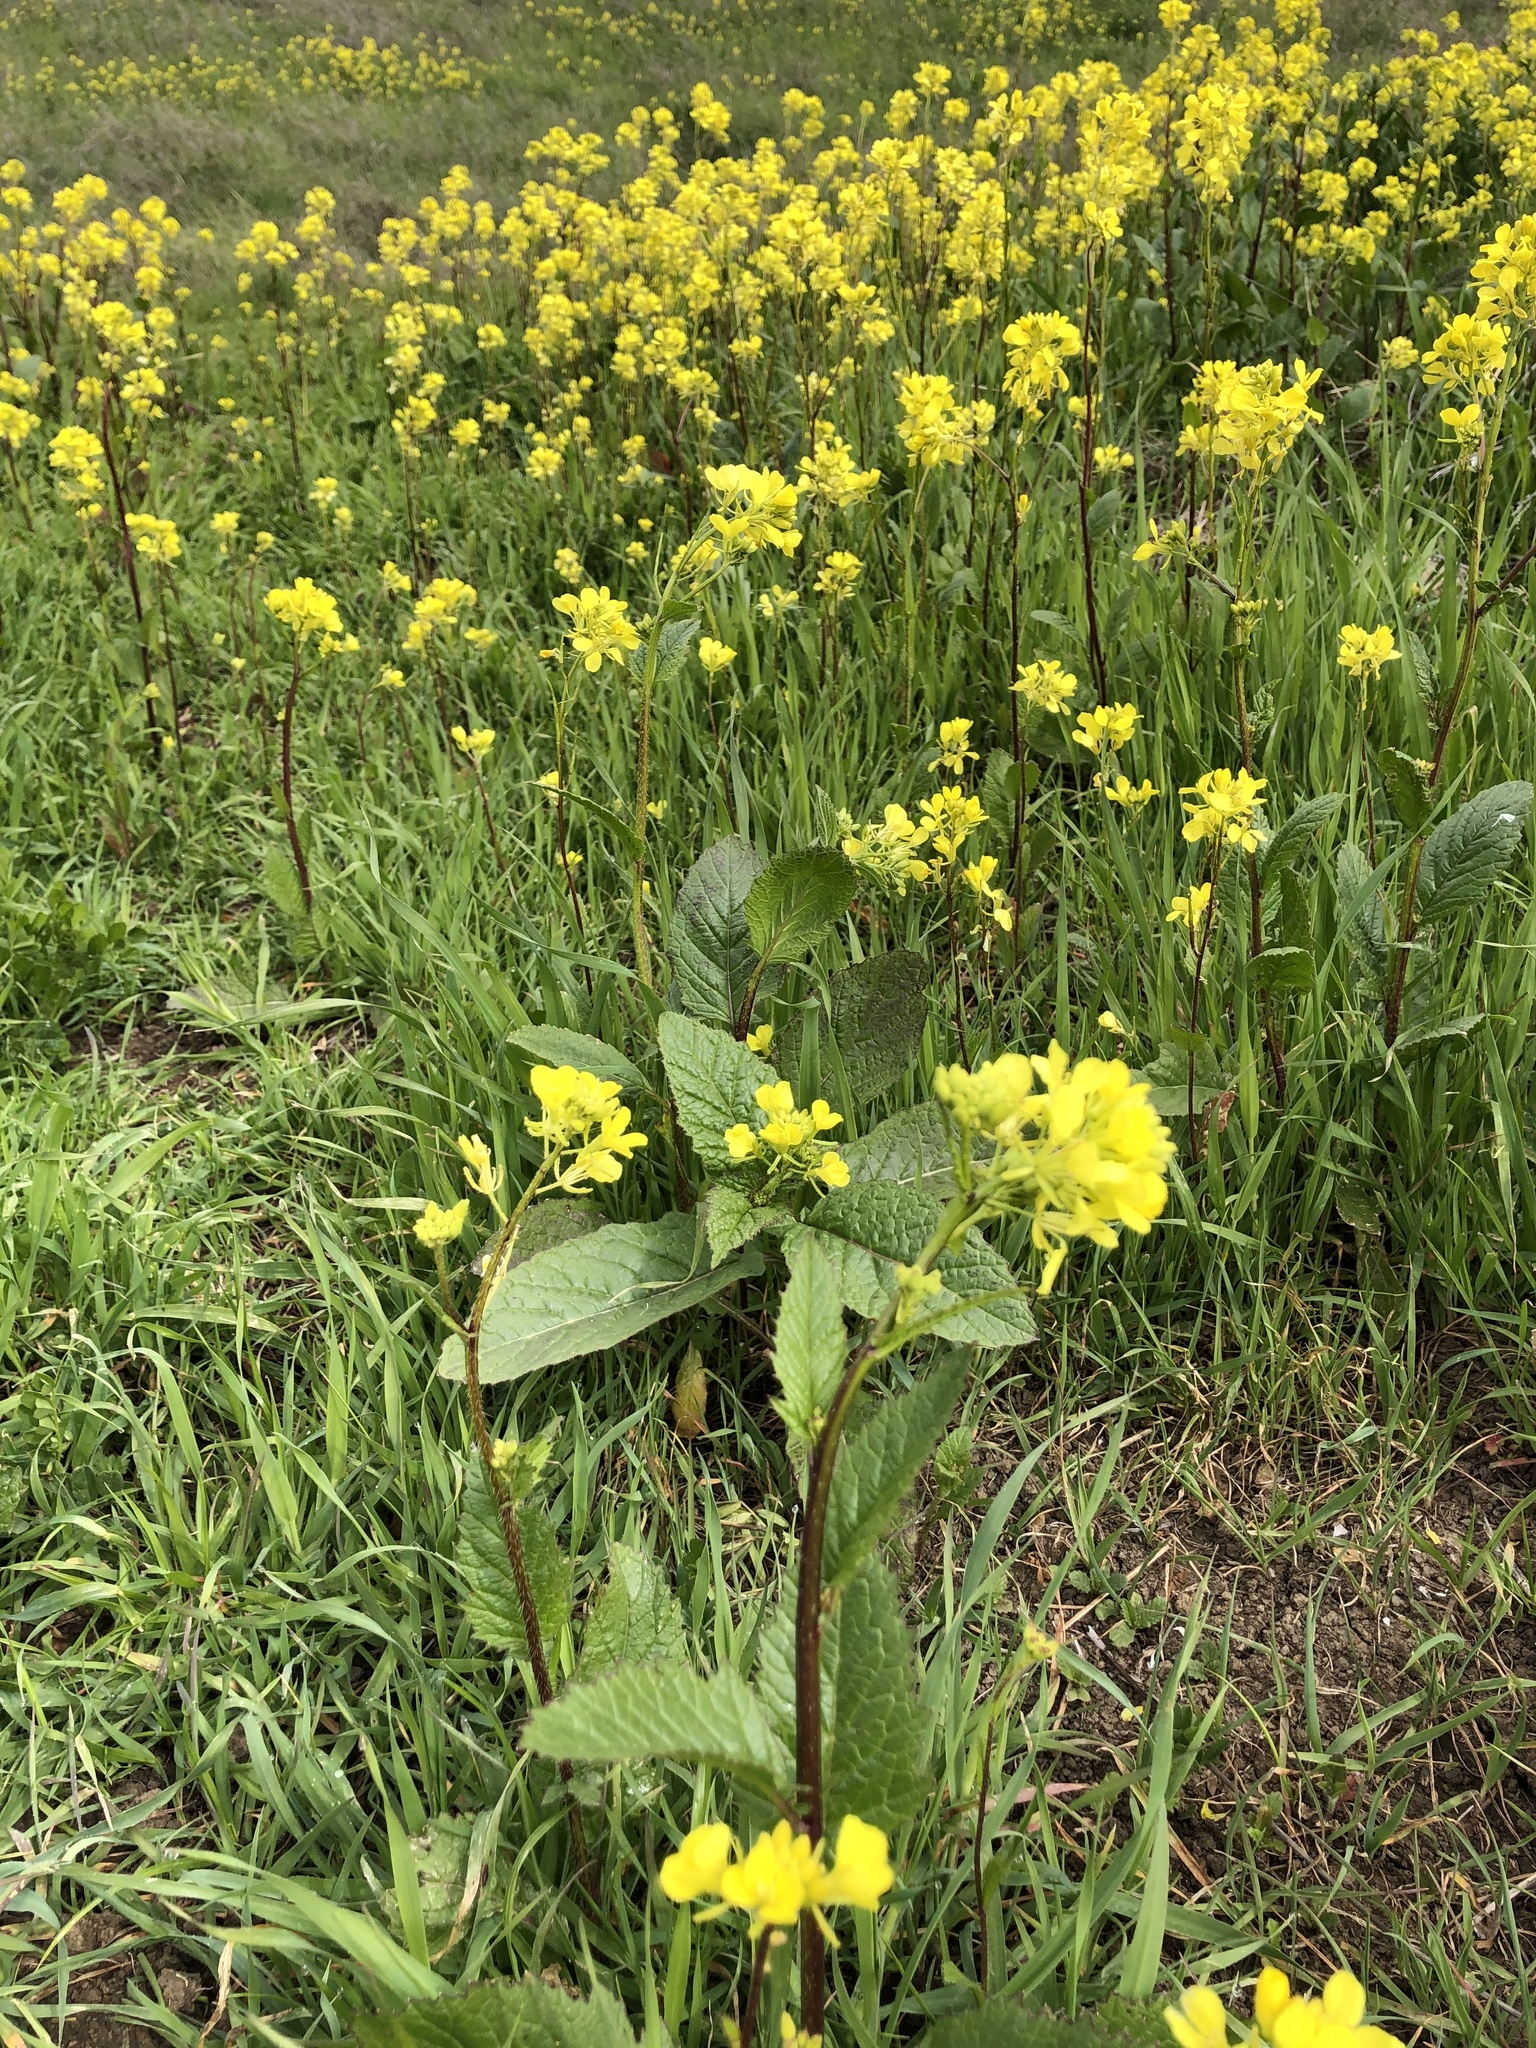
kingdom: Plantae
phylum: Tracheophyta
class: Magnoliopsida
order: Brassicales
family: Brassicaceae
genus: Sinapis
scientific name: Sinapis arvensis
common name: Charlock
